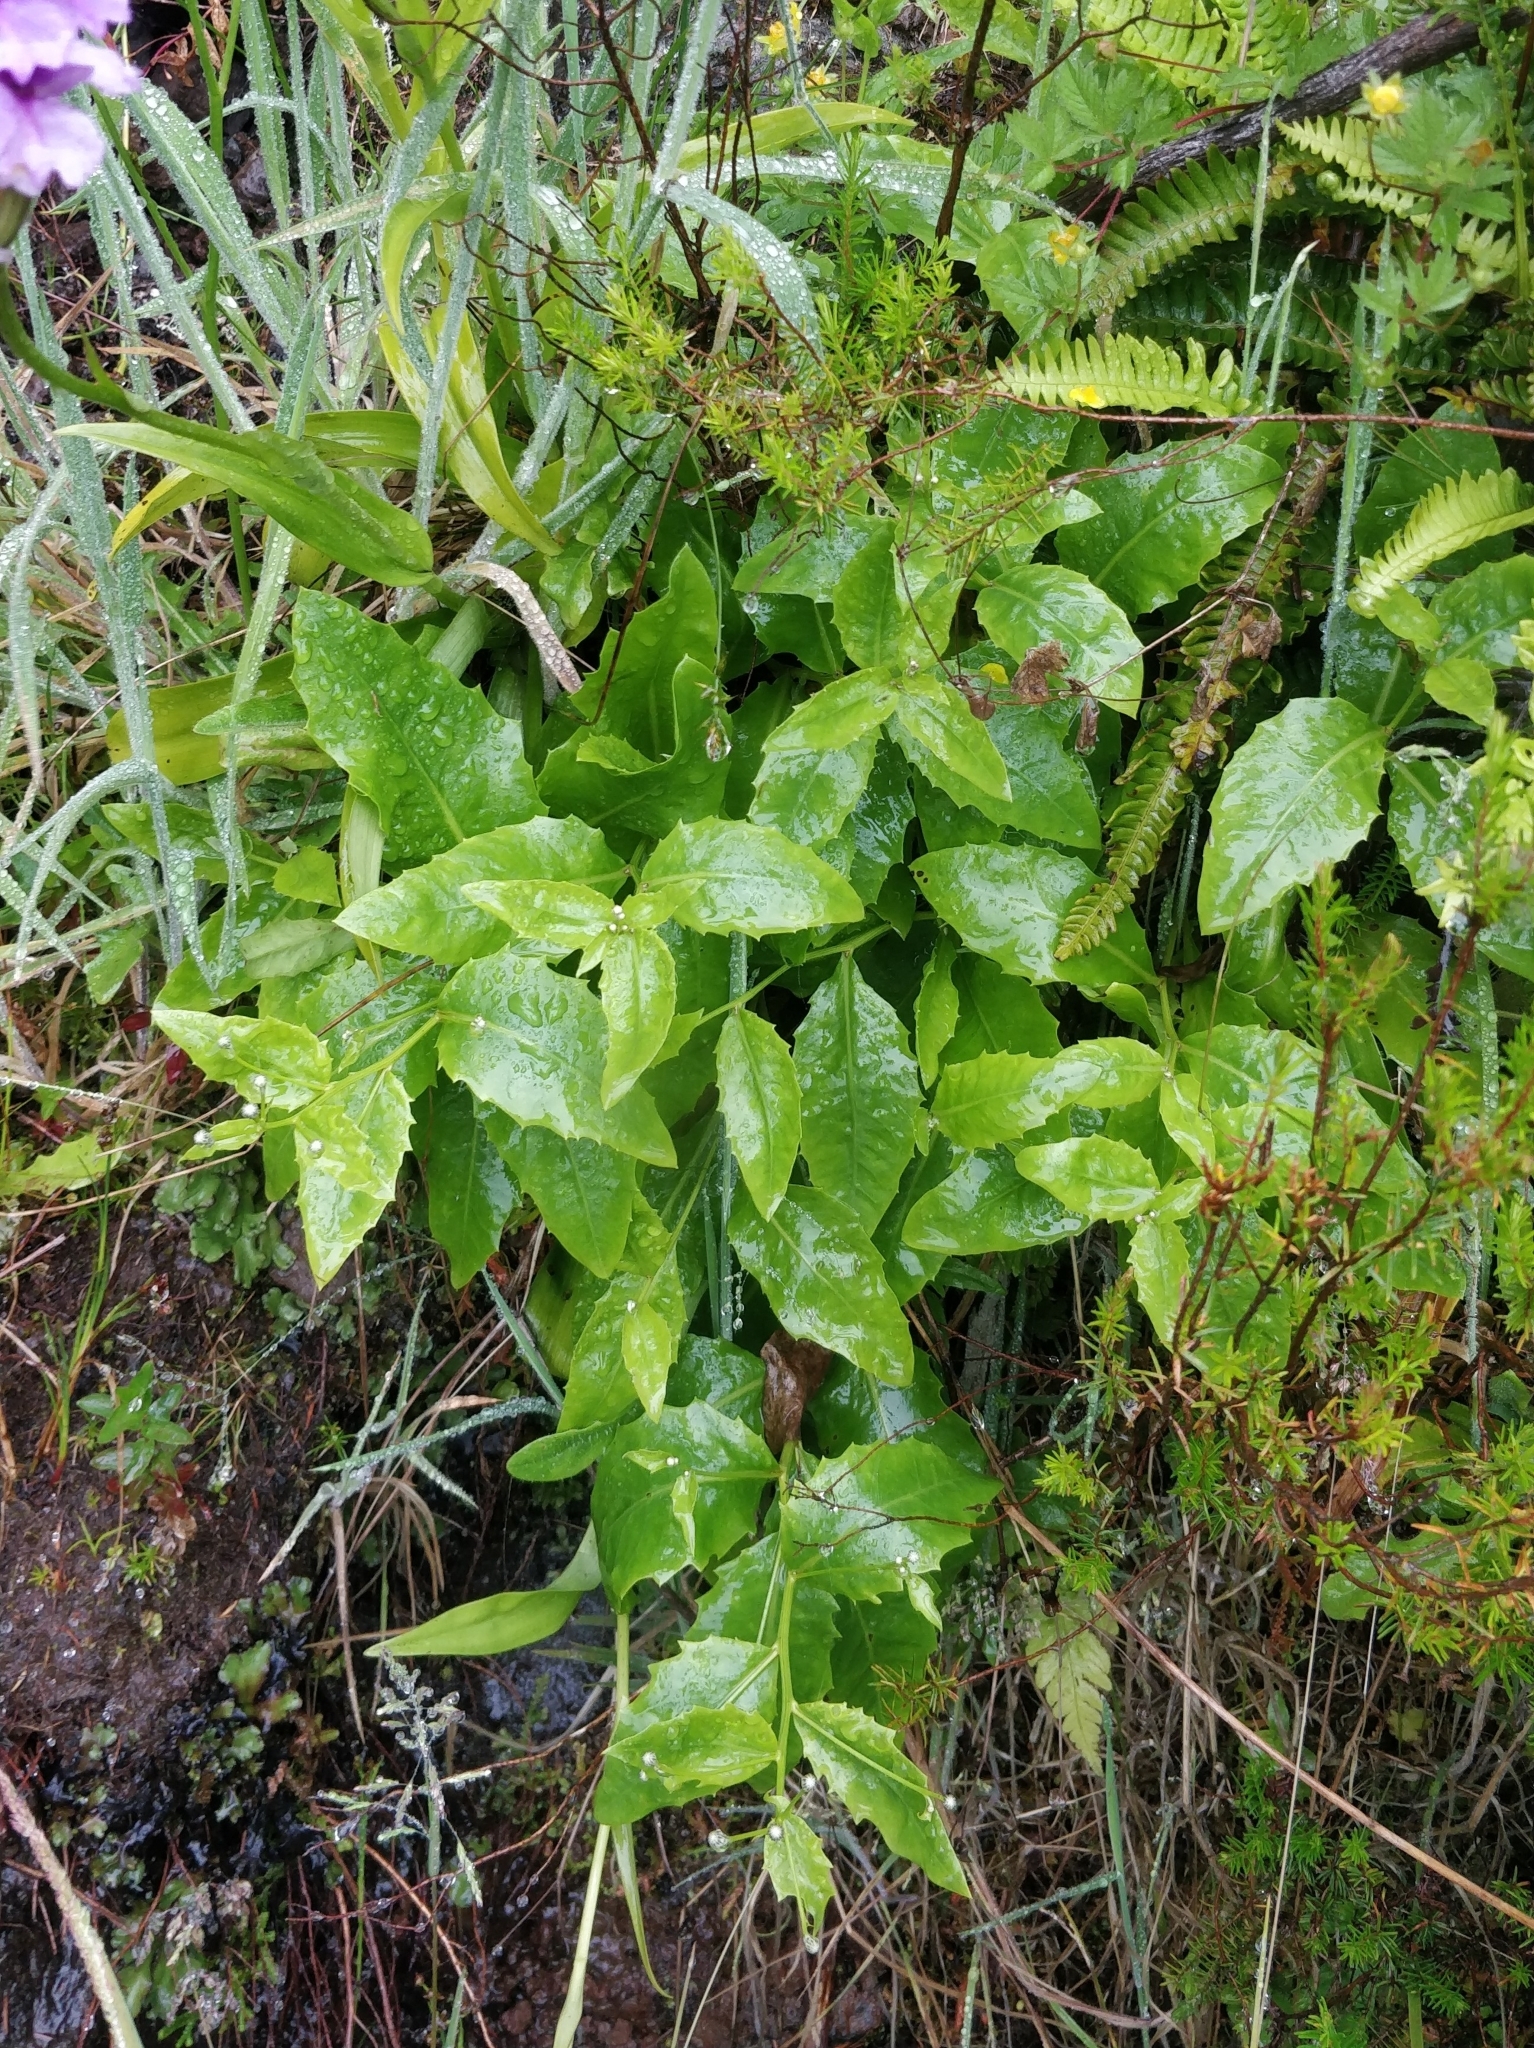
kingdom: Plantae
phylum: Tracheophyta
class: Magnoliopsida
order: Asterales
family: Asteraceae
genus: Tolpis
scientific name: Tolpis macrorhiza
